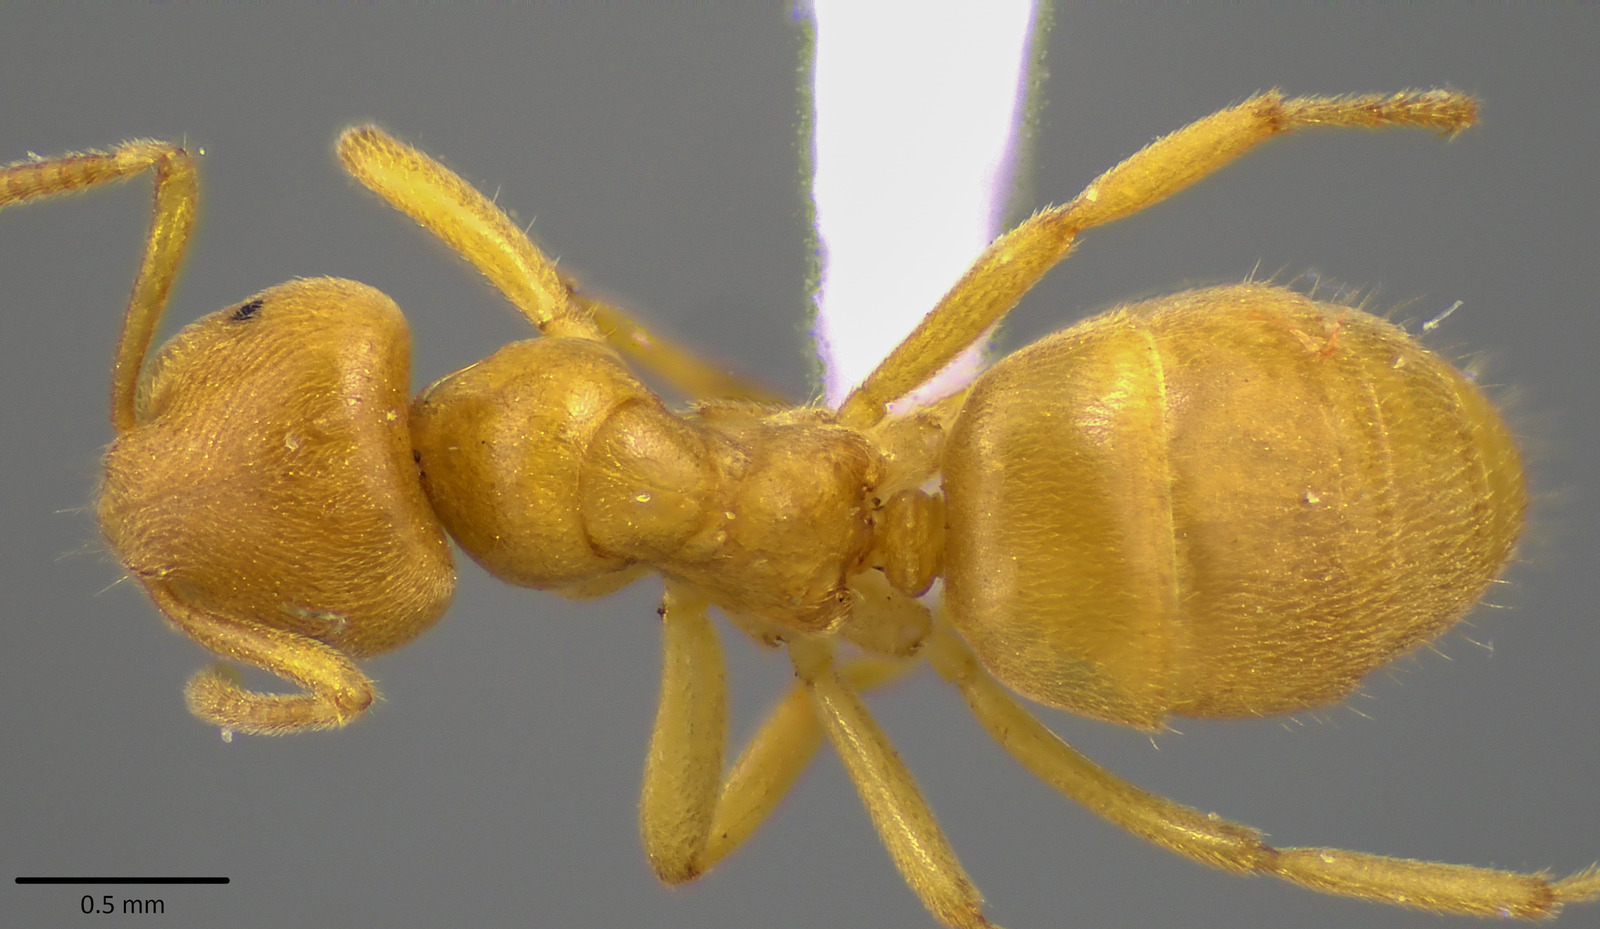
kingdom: Animalia
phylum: Arthropoda
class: Insecta
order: Hymenoptera
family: Formicidae
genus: Lasius
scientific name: Lasius nearcticus
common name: New world fuzzy ant
